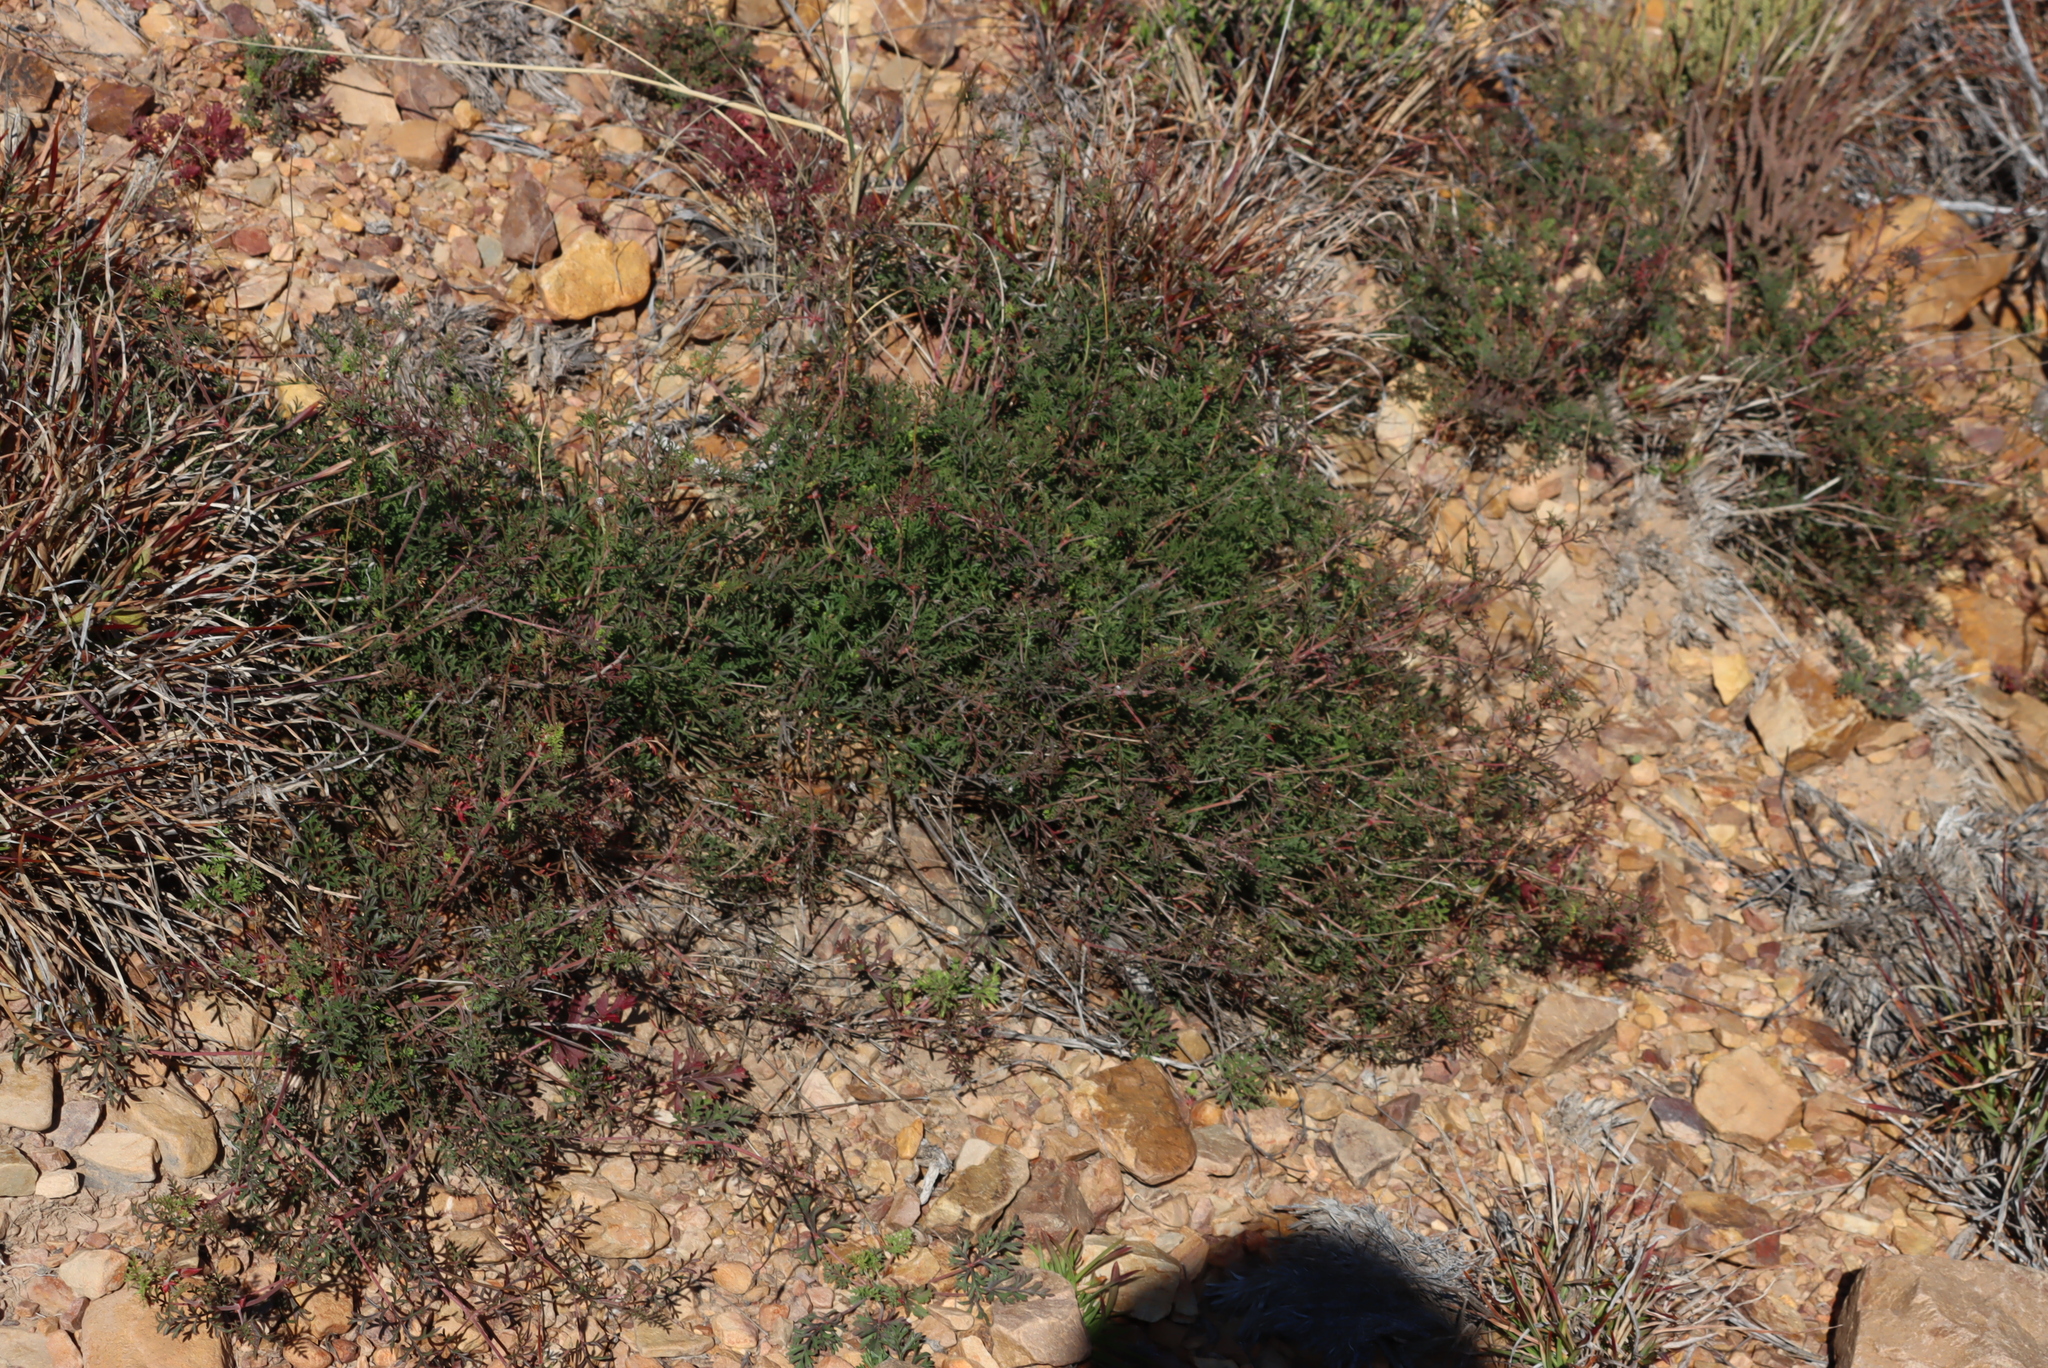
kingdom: Plantae
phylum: Tracheophyta
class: Magnoliopsida
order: Geraniales
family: Geraniaceae
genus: Pelargonium
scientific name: Pelargonium caucalifolium
